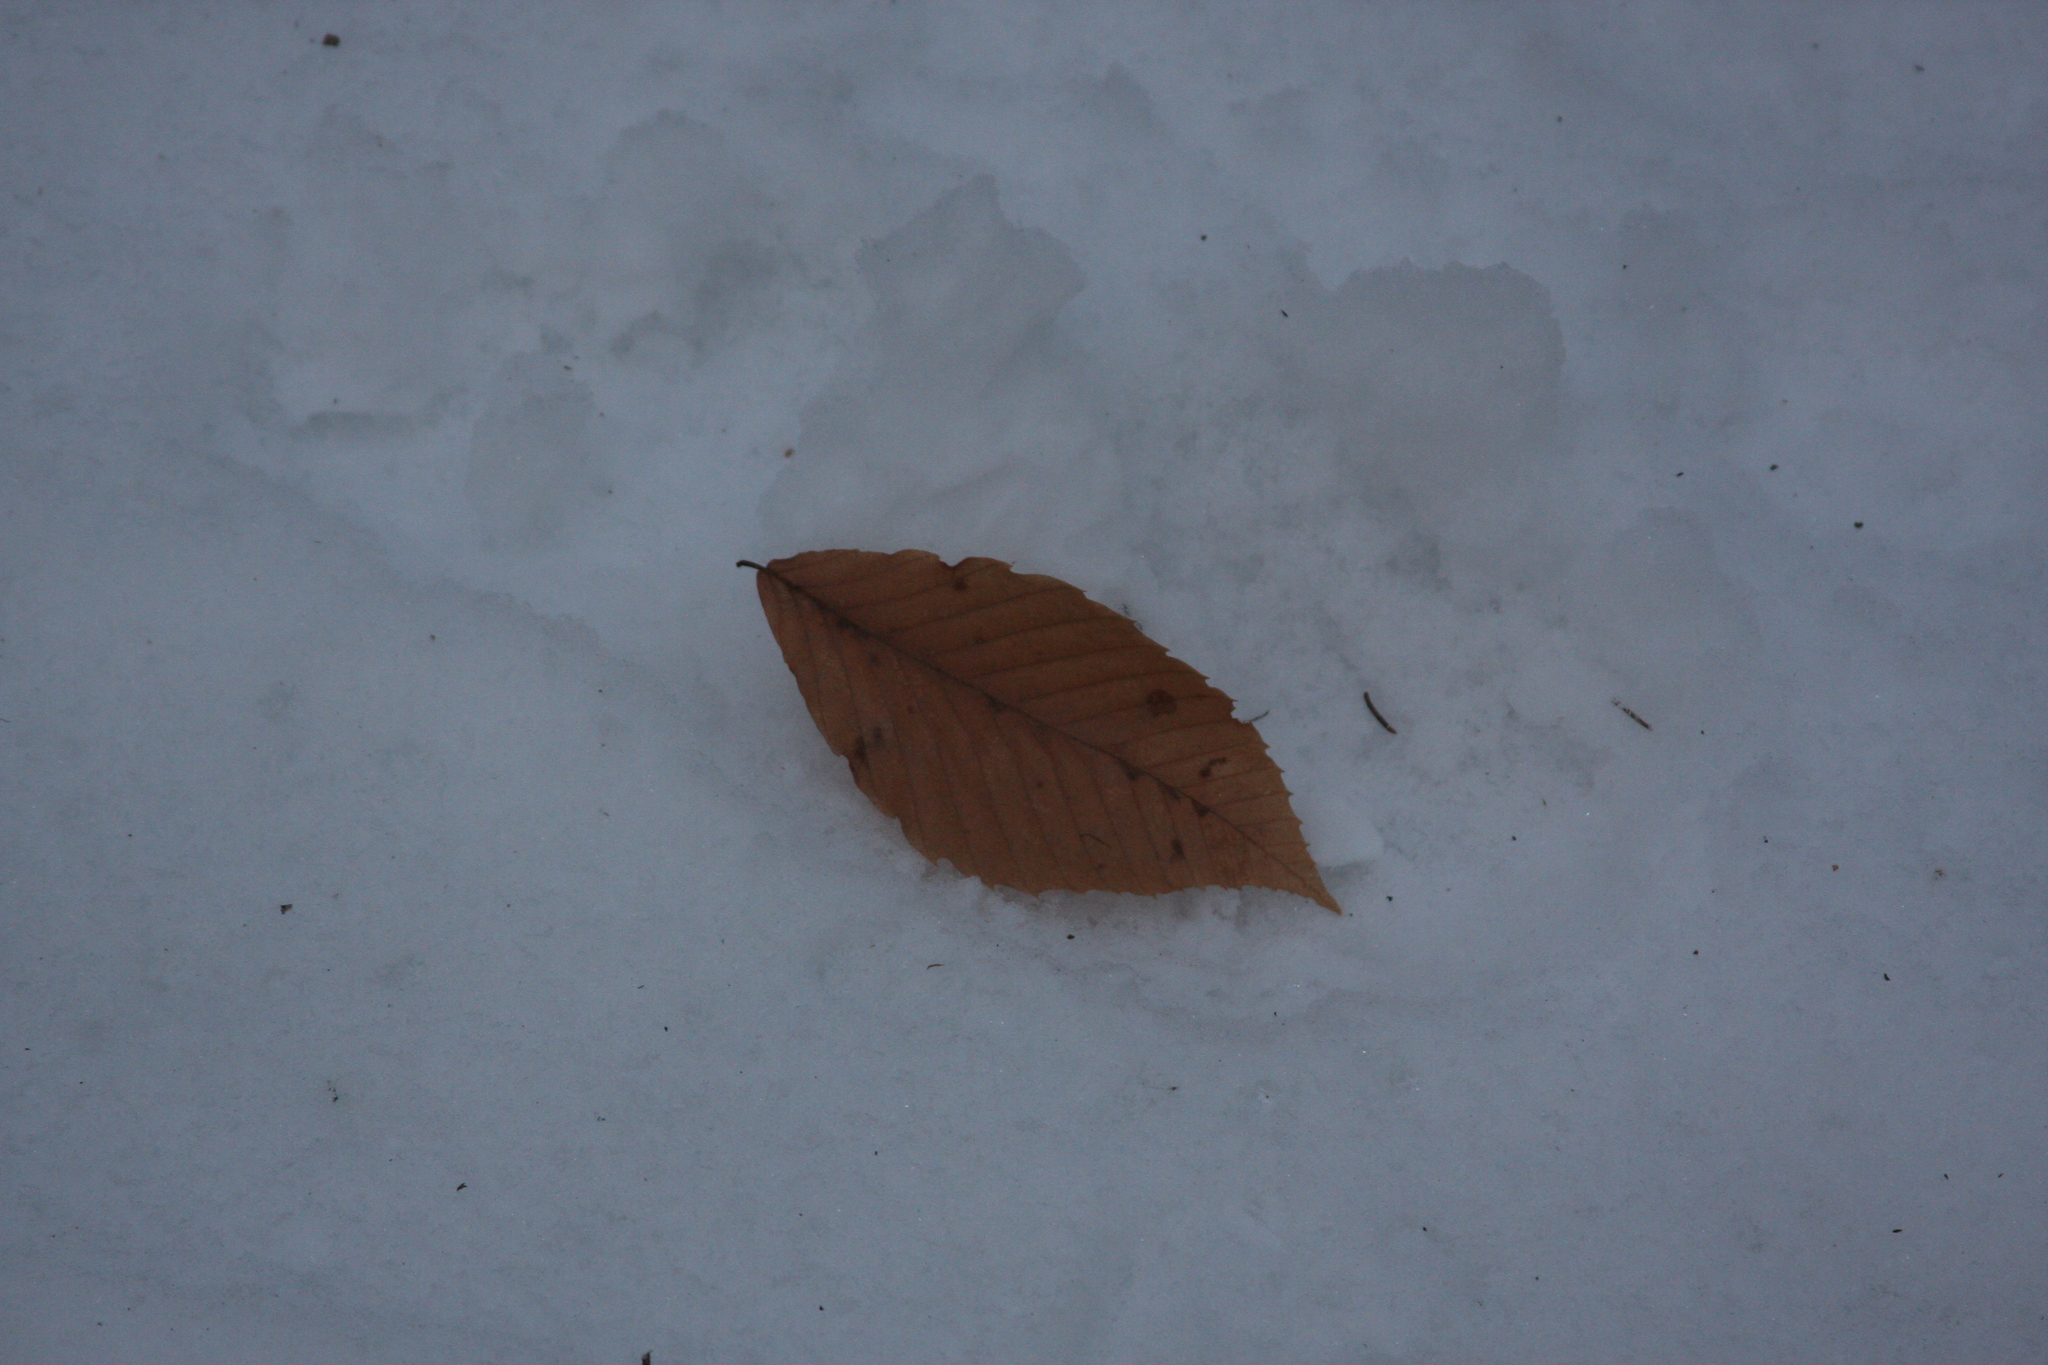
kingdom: Plantae
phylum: Tracheophyta
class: Magnoliopsida
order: Fagales
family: Fagaceae
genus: Fagus
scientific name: Fagus grandifolia
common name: American beech
